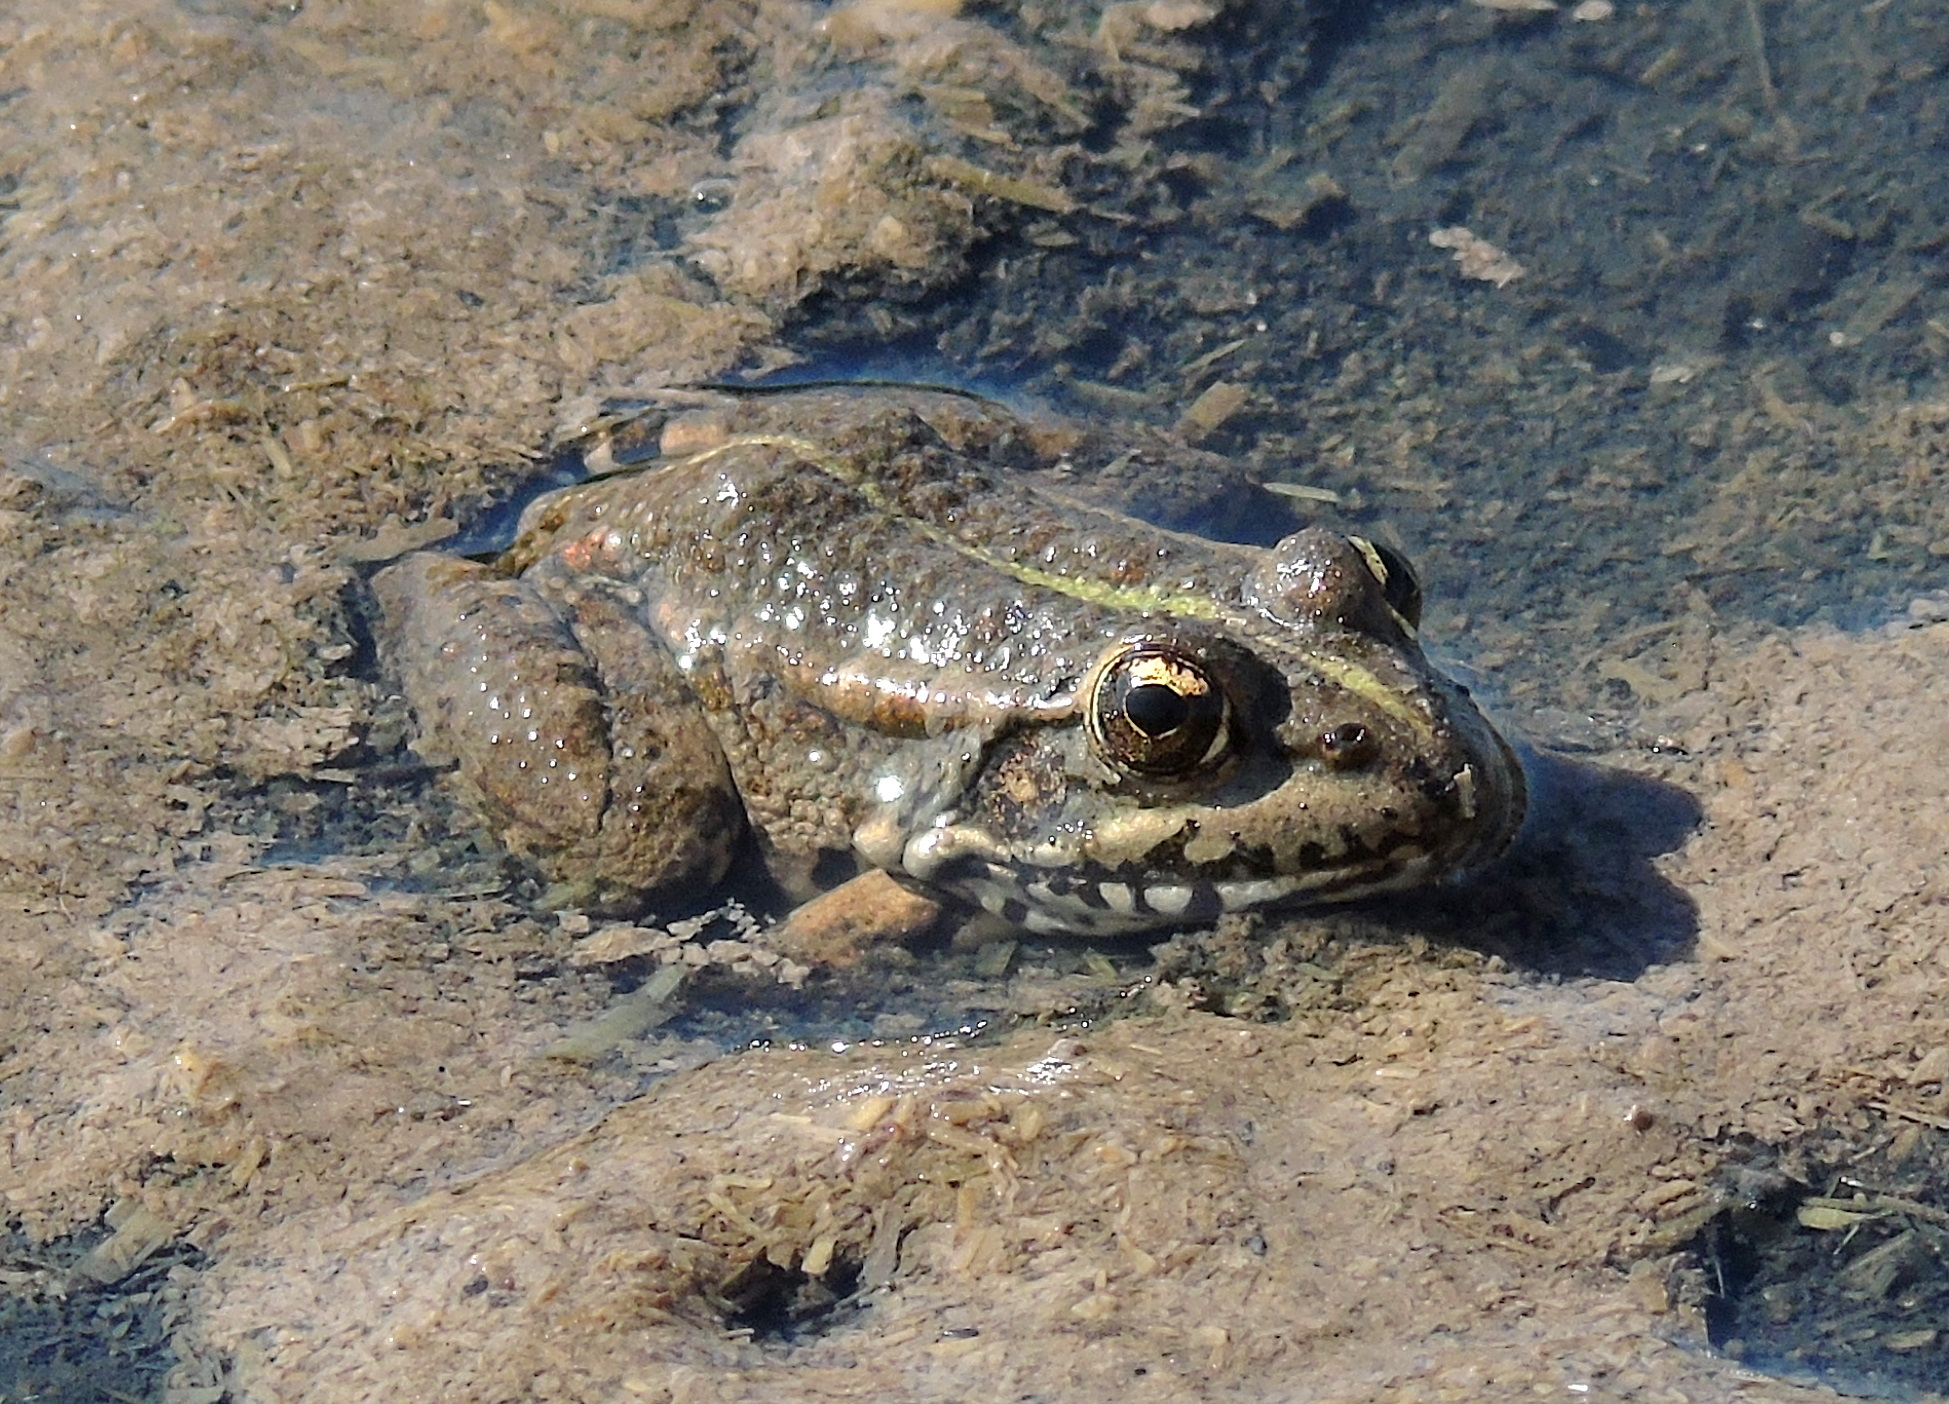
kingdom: Animalia
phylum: Chordata
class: Amphibia
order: Anura
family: Ranidae
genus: Pelophylax
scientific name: Pelophylax ridibundus
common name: Marsh frog
